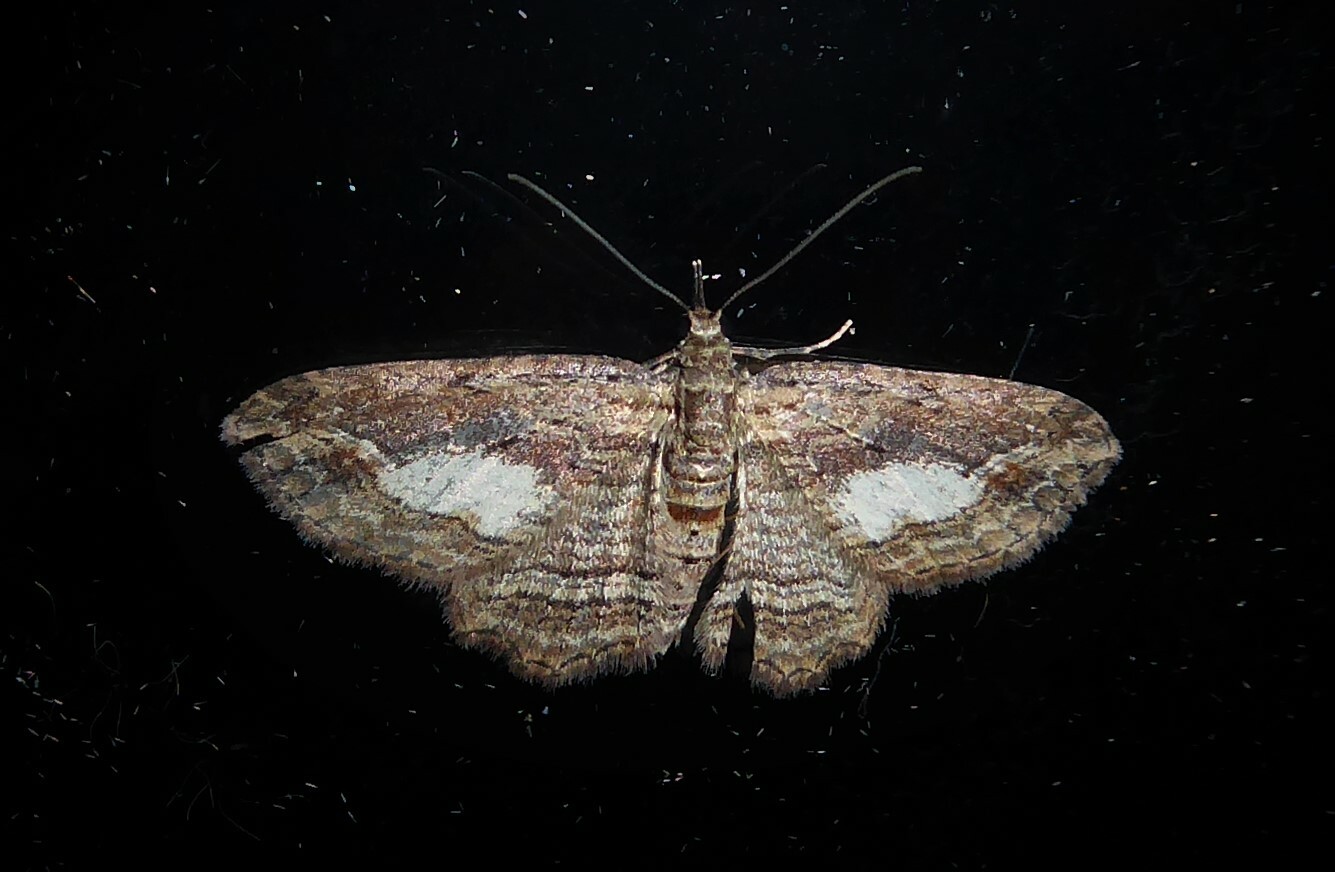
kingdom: Animalia
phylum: Arthropoda
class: Insecta
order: Lepidoptera
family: Geometridae
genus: Chloroclystis
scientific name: Chloroclystis filata
